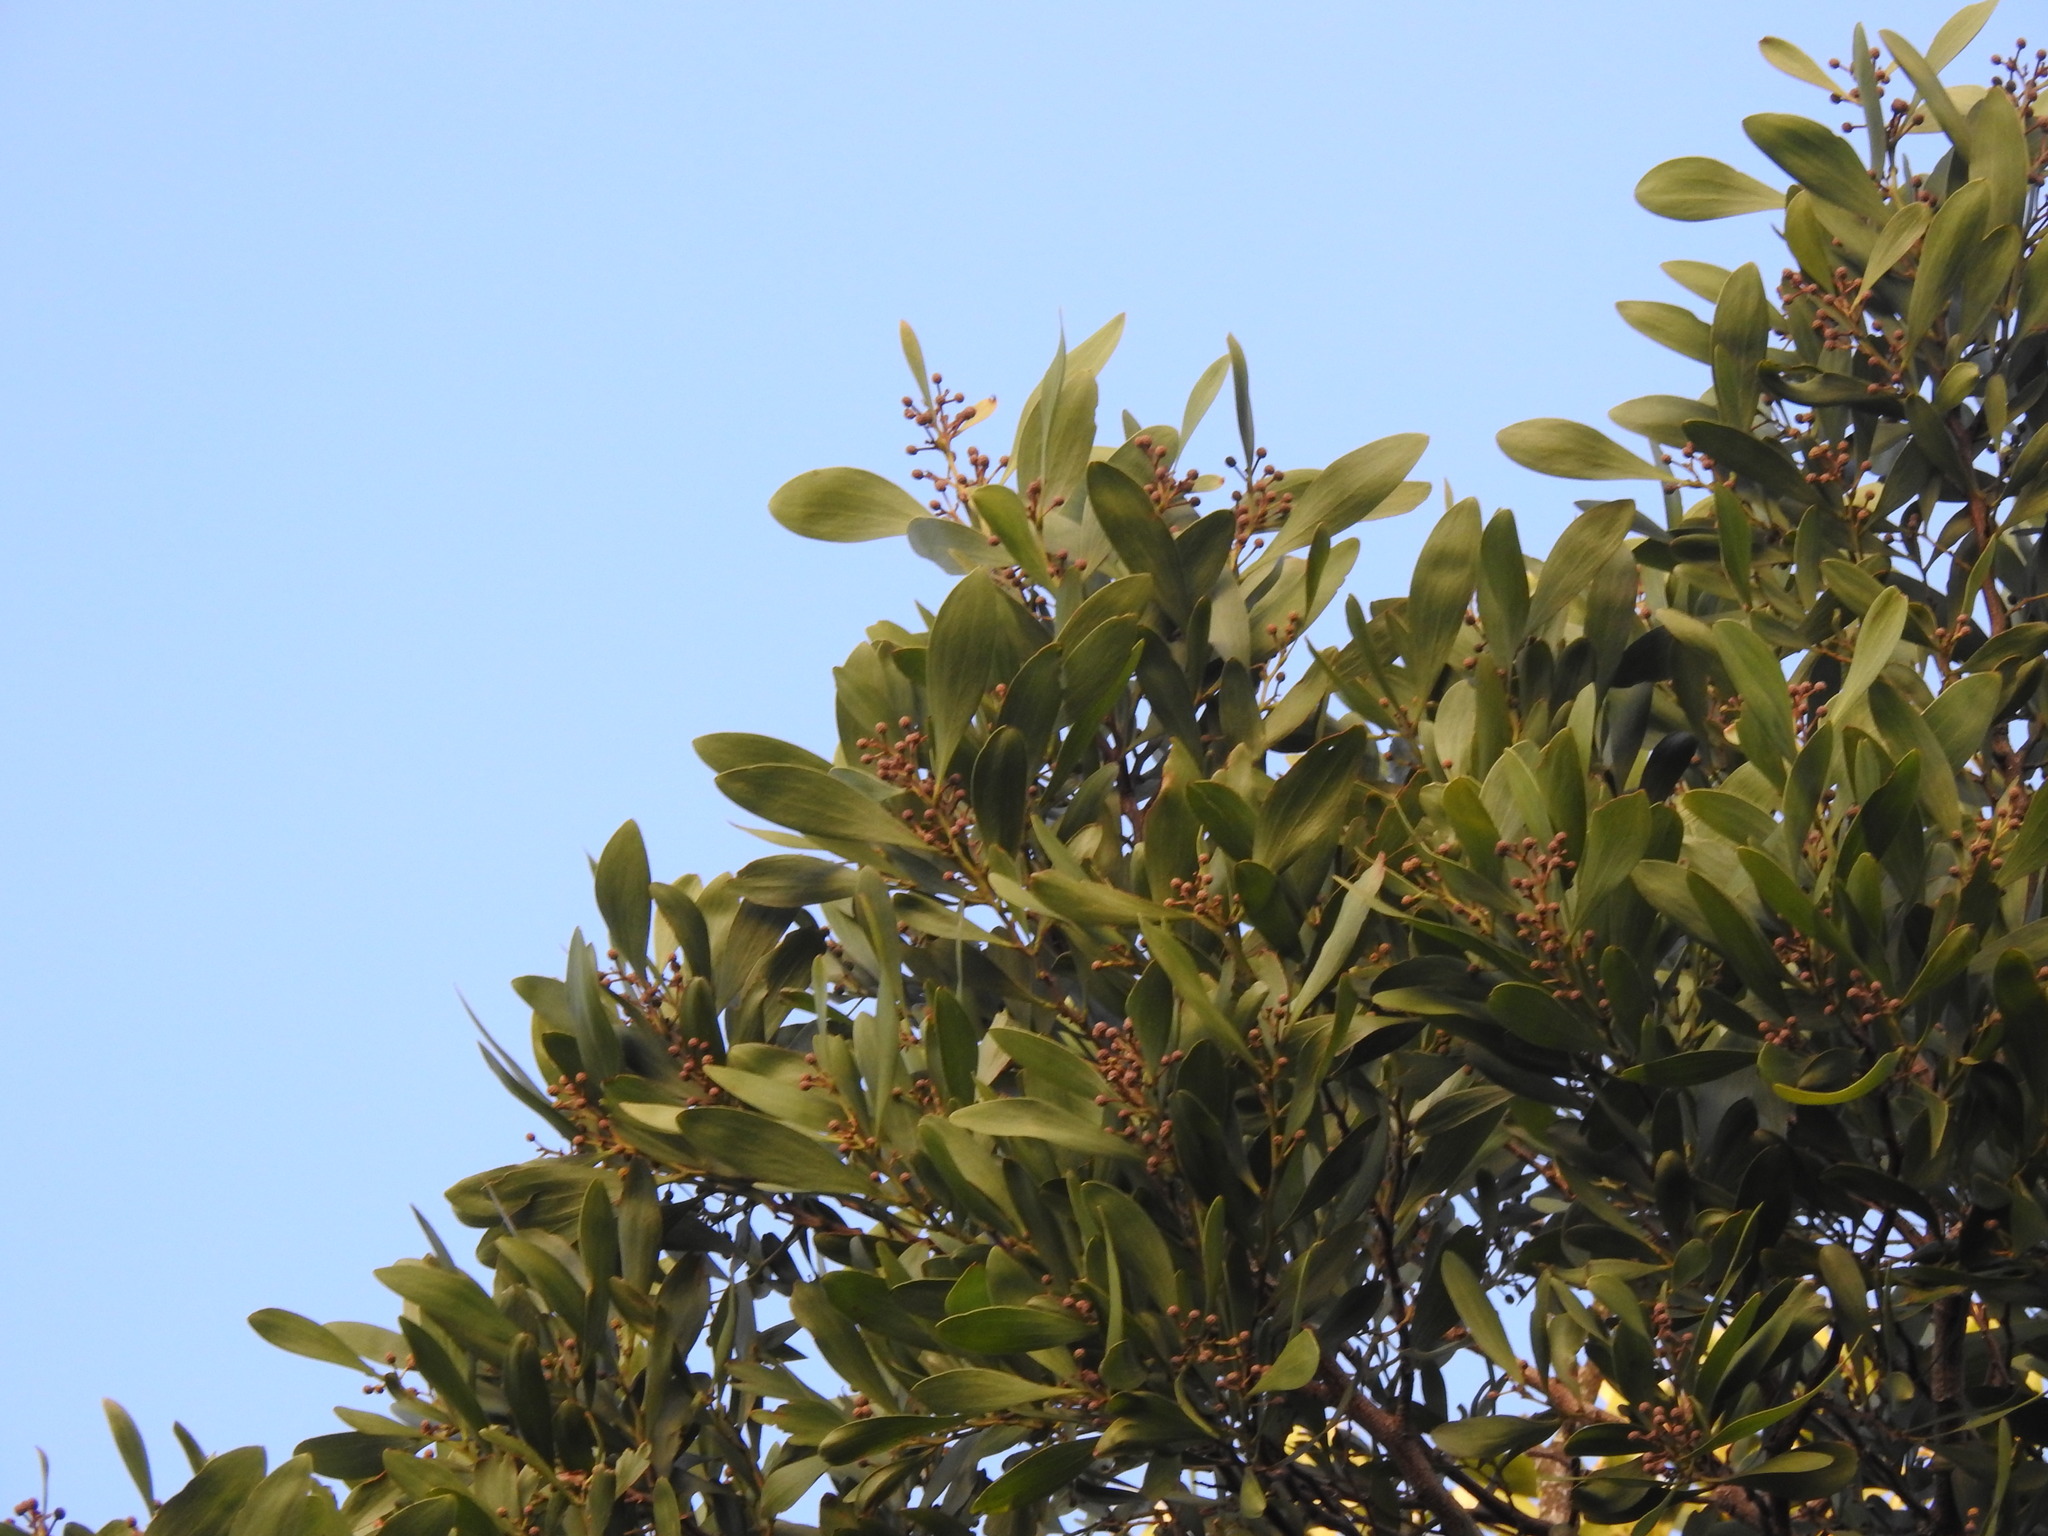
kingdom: Plantae
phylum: Tracheophyta
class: Magnoliopsida
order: Fabales
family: Fabaceae
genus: Acacia
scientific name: Acacia melanoxylon
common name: Blackwood
